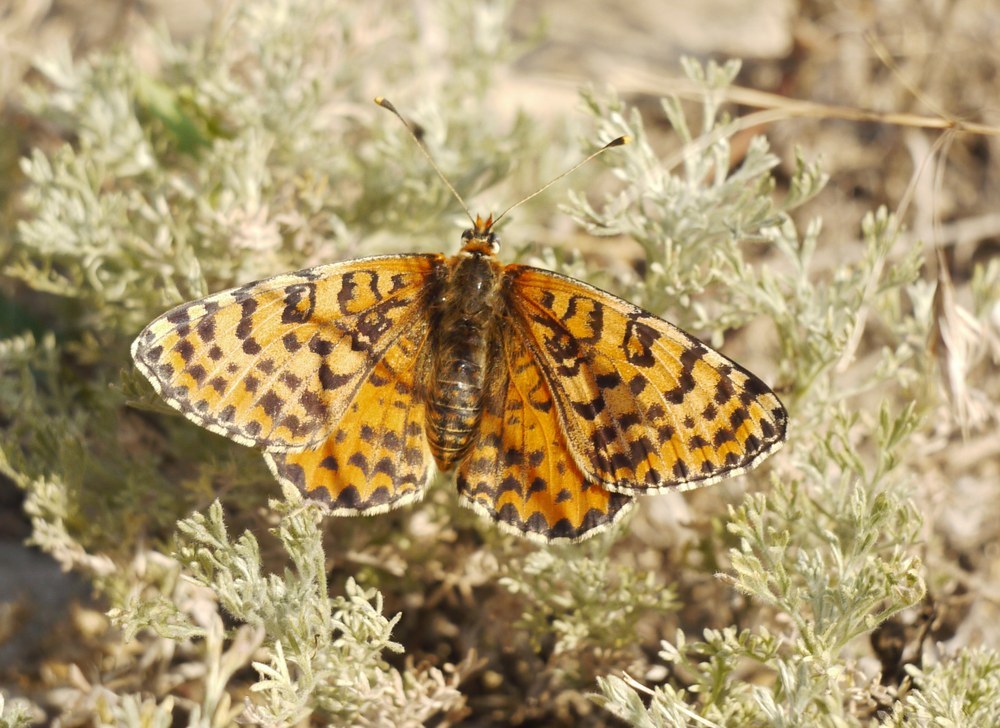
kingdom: Animalia
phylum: Arthropoda
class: Insecta
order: Lepidoptera
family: Nymphalidae
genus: Melitaea
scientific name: Melitaea didyma
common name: Spotted fritillary
